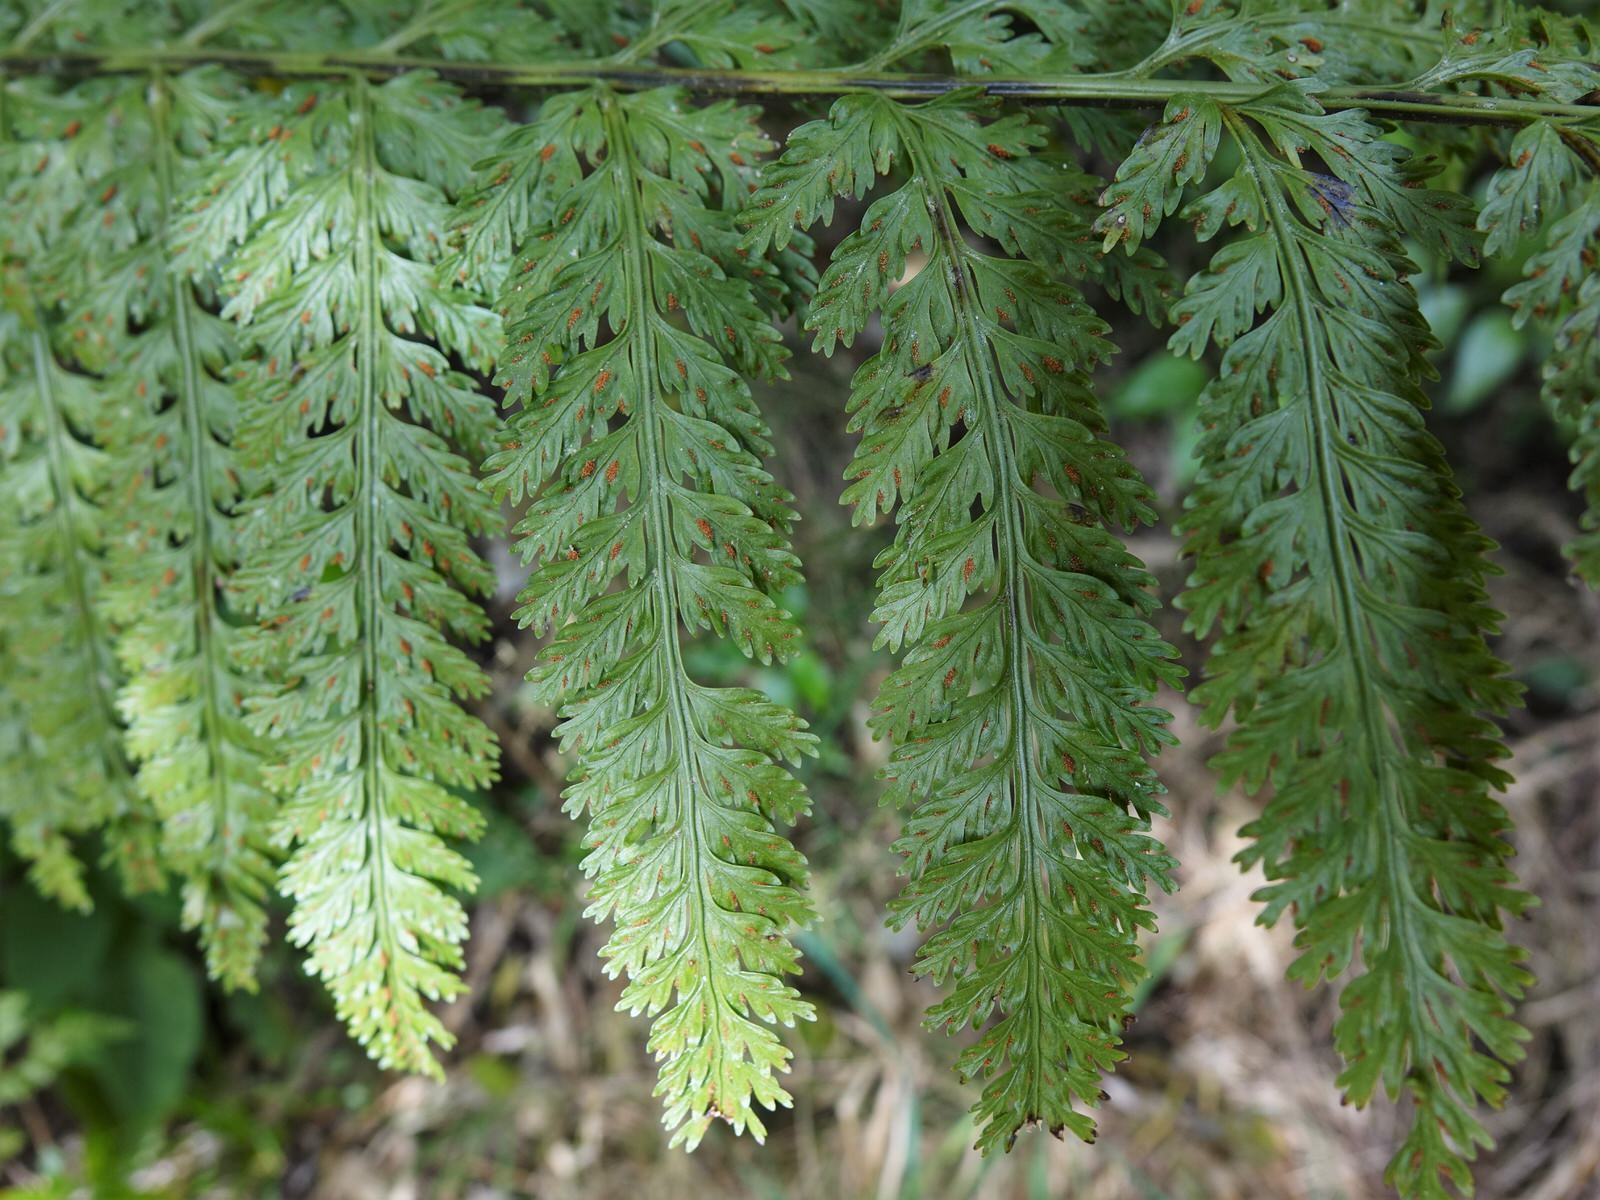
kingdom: Plantae
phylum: Tracheophyta
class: Polypodiopsida
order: Polypodiales
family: Aspleniaceae
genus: Asplenium
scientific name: Asplenium bulbiferum
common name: Mother fern
